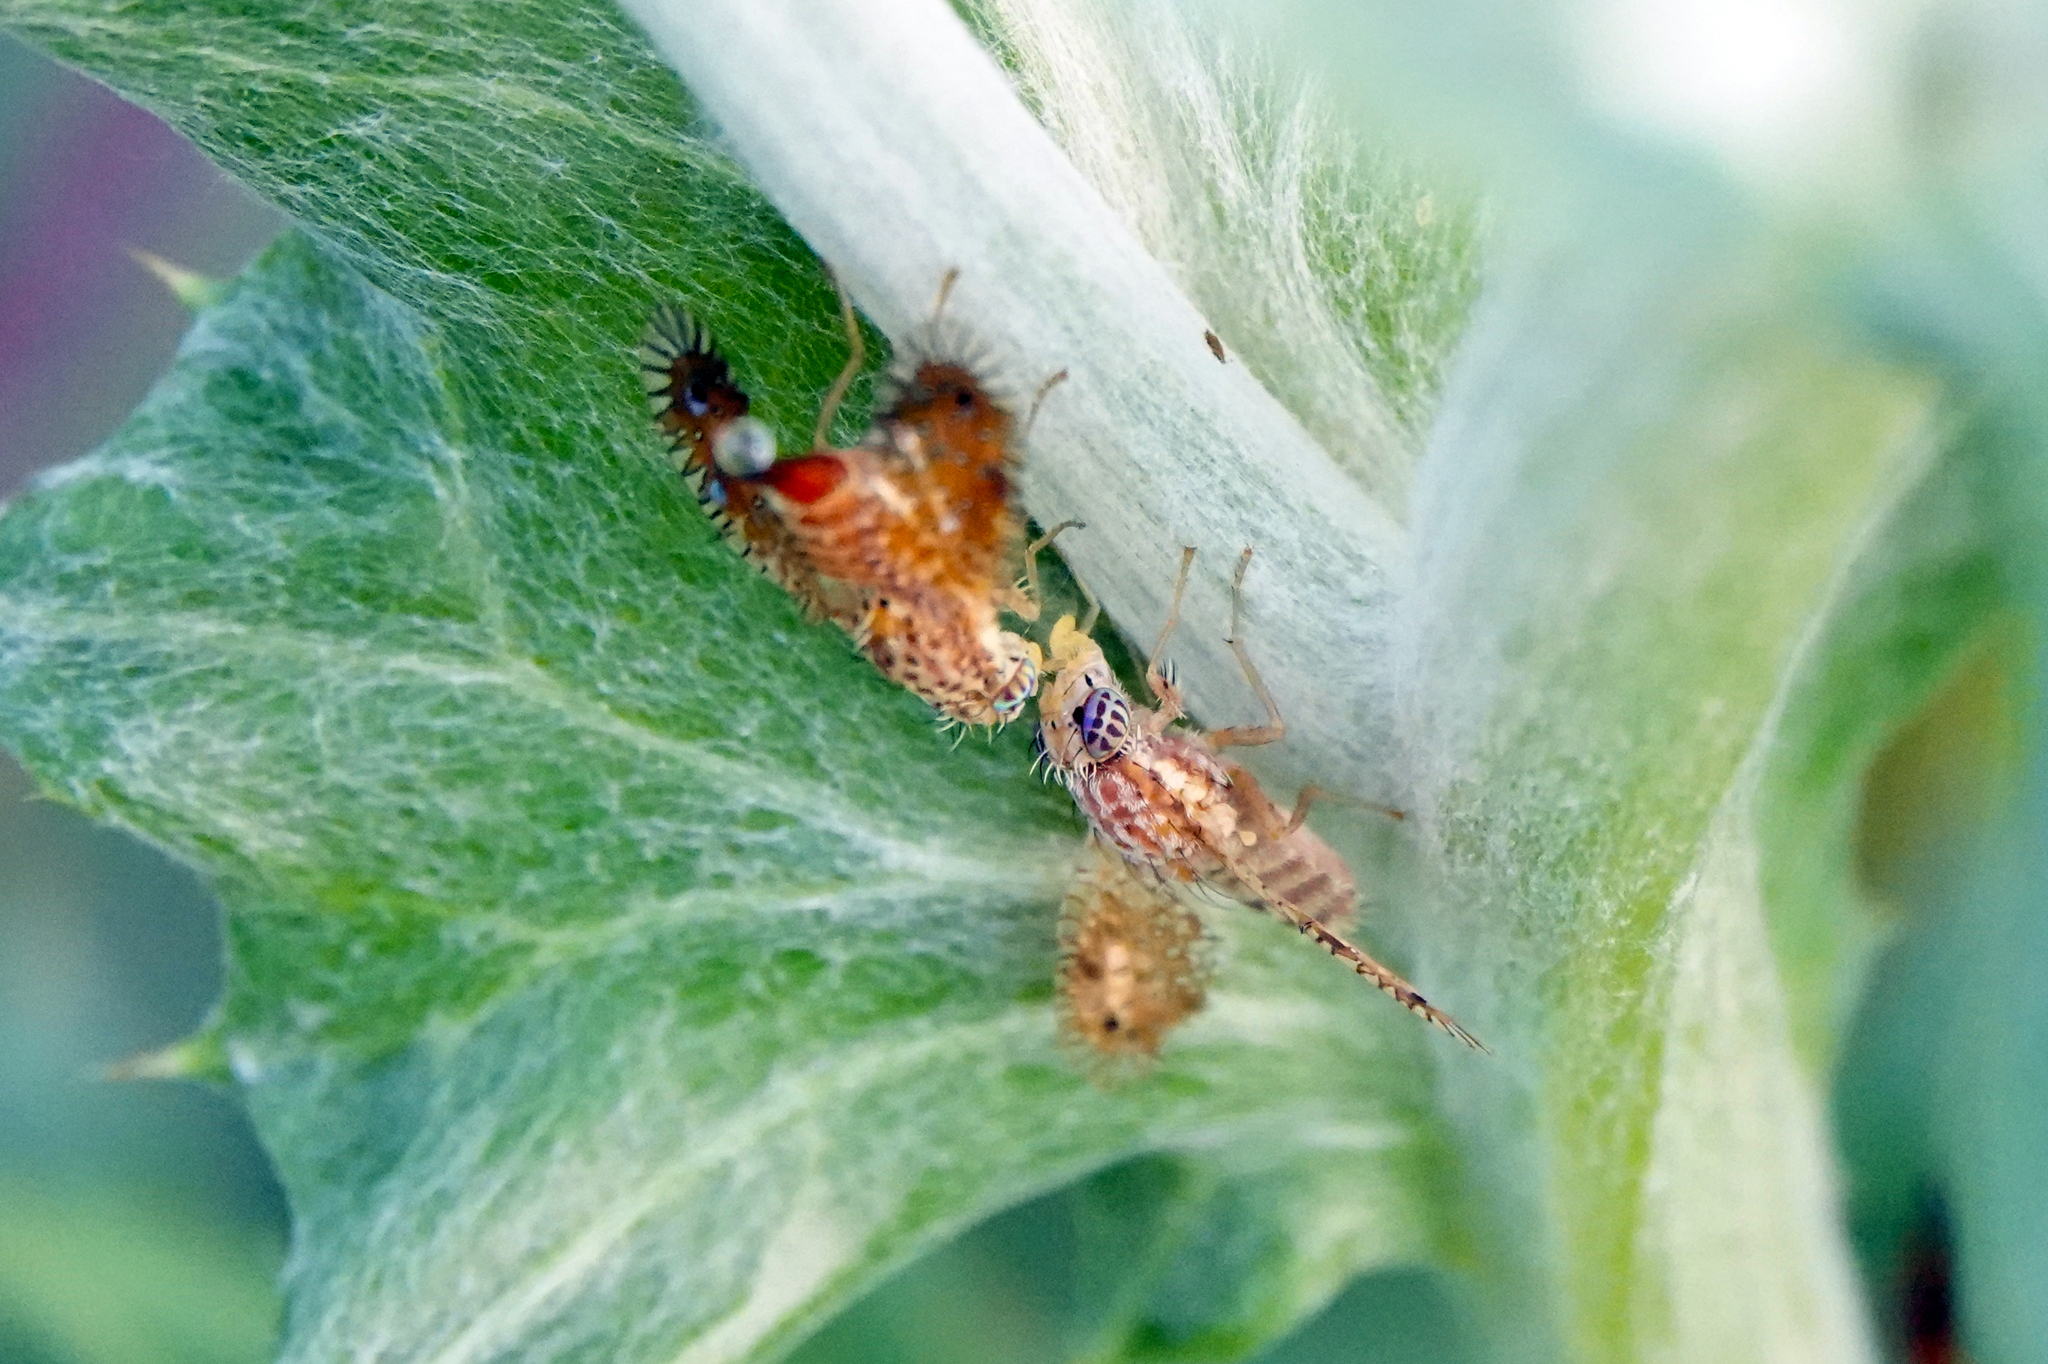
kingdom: Animalia
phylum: Arthropoda
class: Insecta
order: Diptera
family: Tephritidae
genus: Paracantha
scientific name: Paracantha culta
